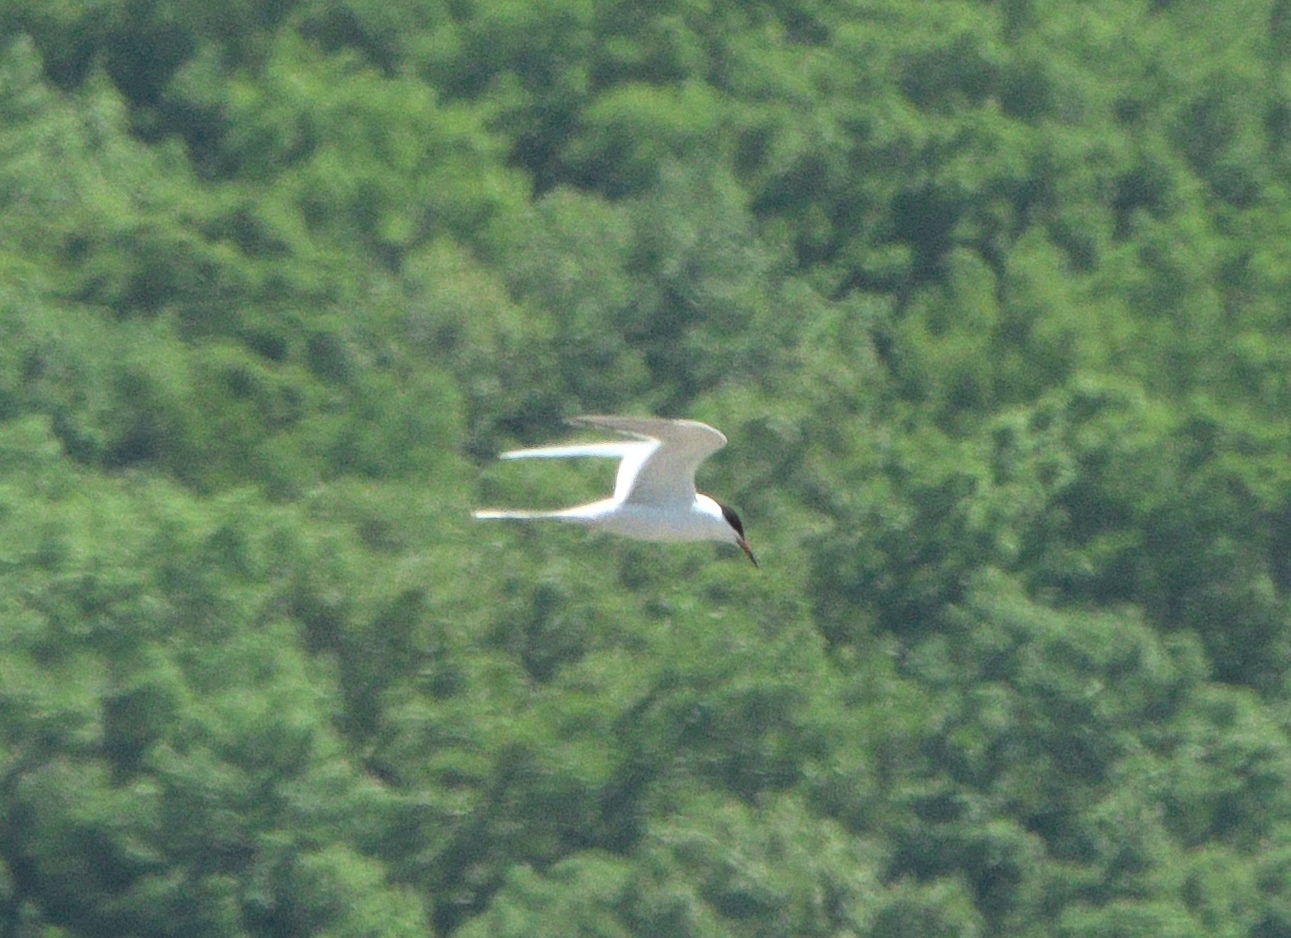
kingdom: Animalia
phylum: Chordata
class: Aves
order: Charadriiformes
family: Laridae
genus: Sterna
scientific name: Sterna forsteri
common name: Forster's tern
